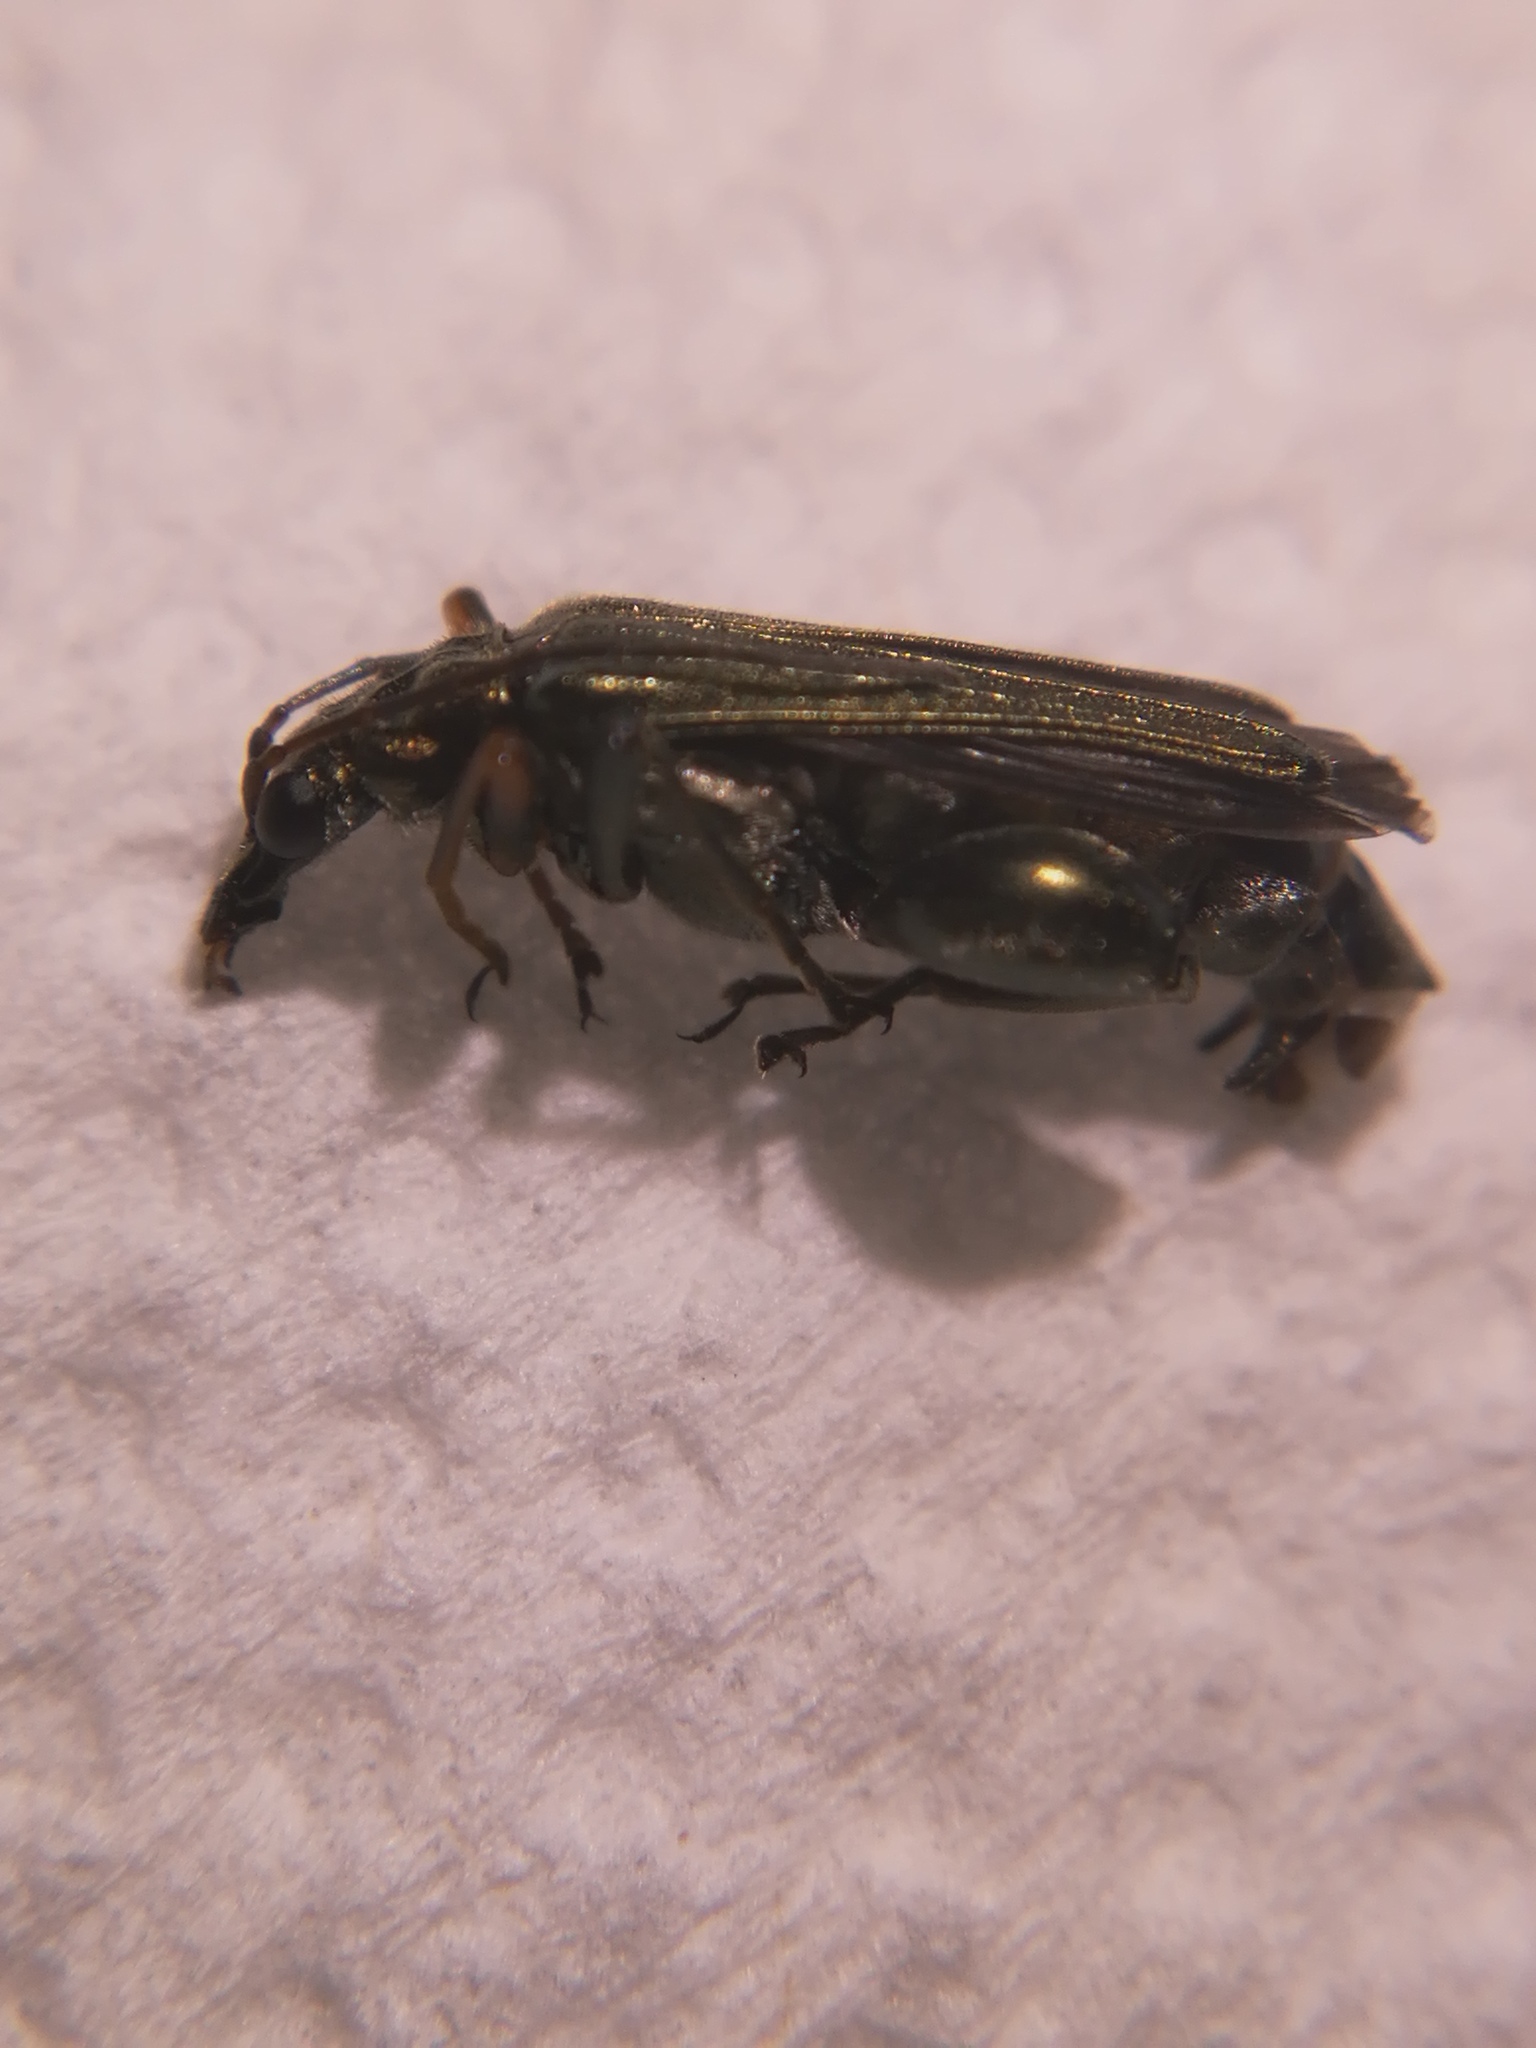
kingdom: Animalia
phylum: Arthropoda
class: Insecta
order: Coleoptera
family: Oedemeridae
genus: Oedemera
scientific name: Oedemera flavipes
